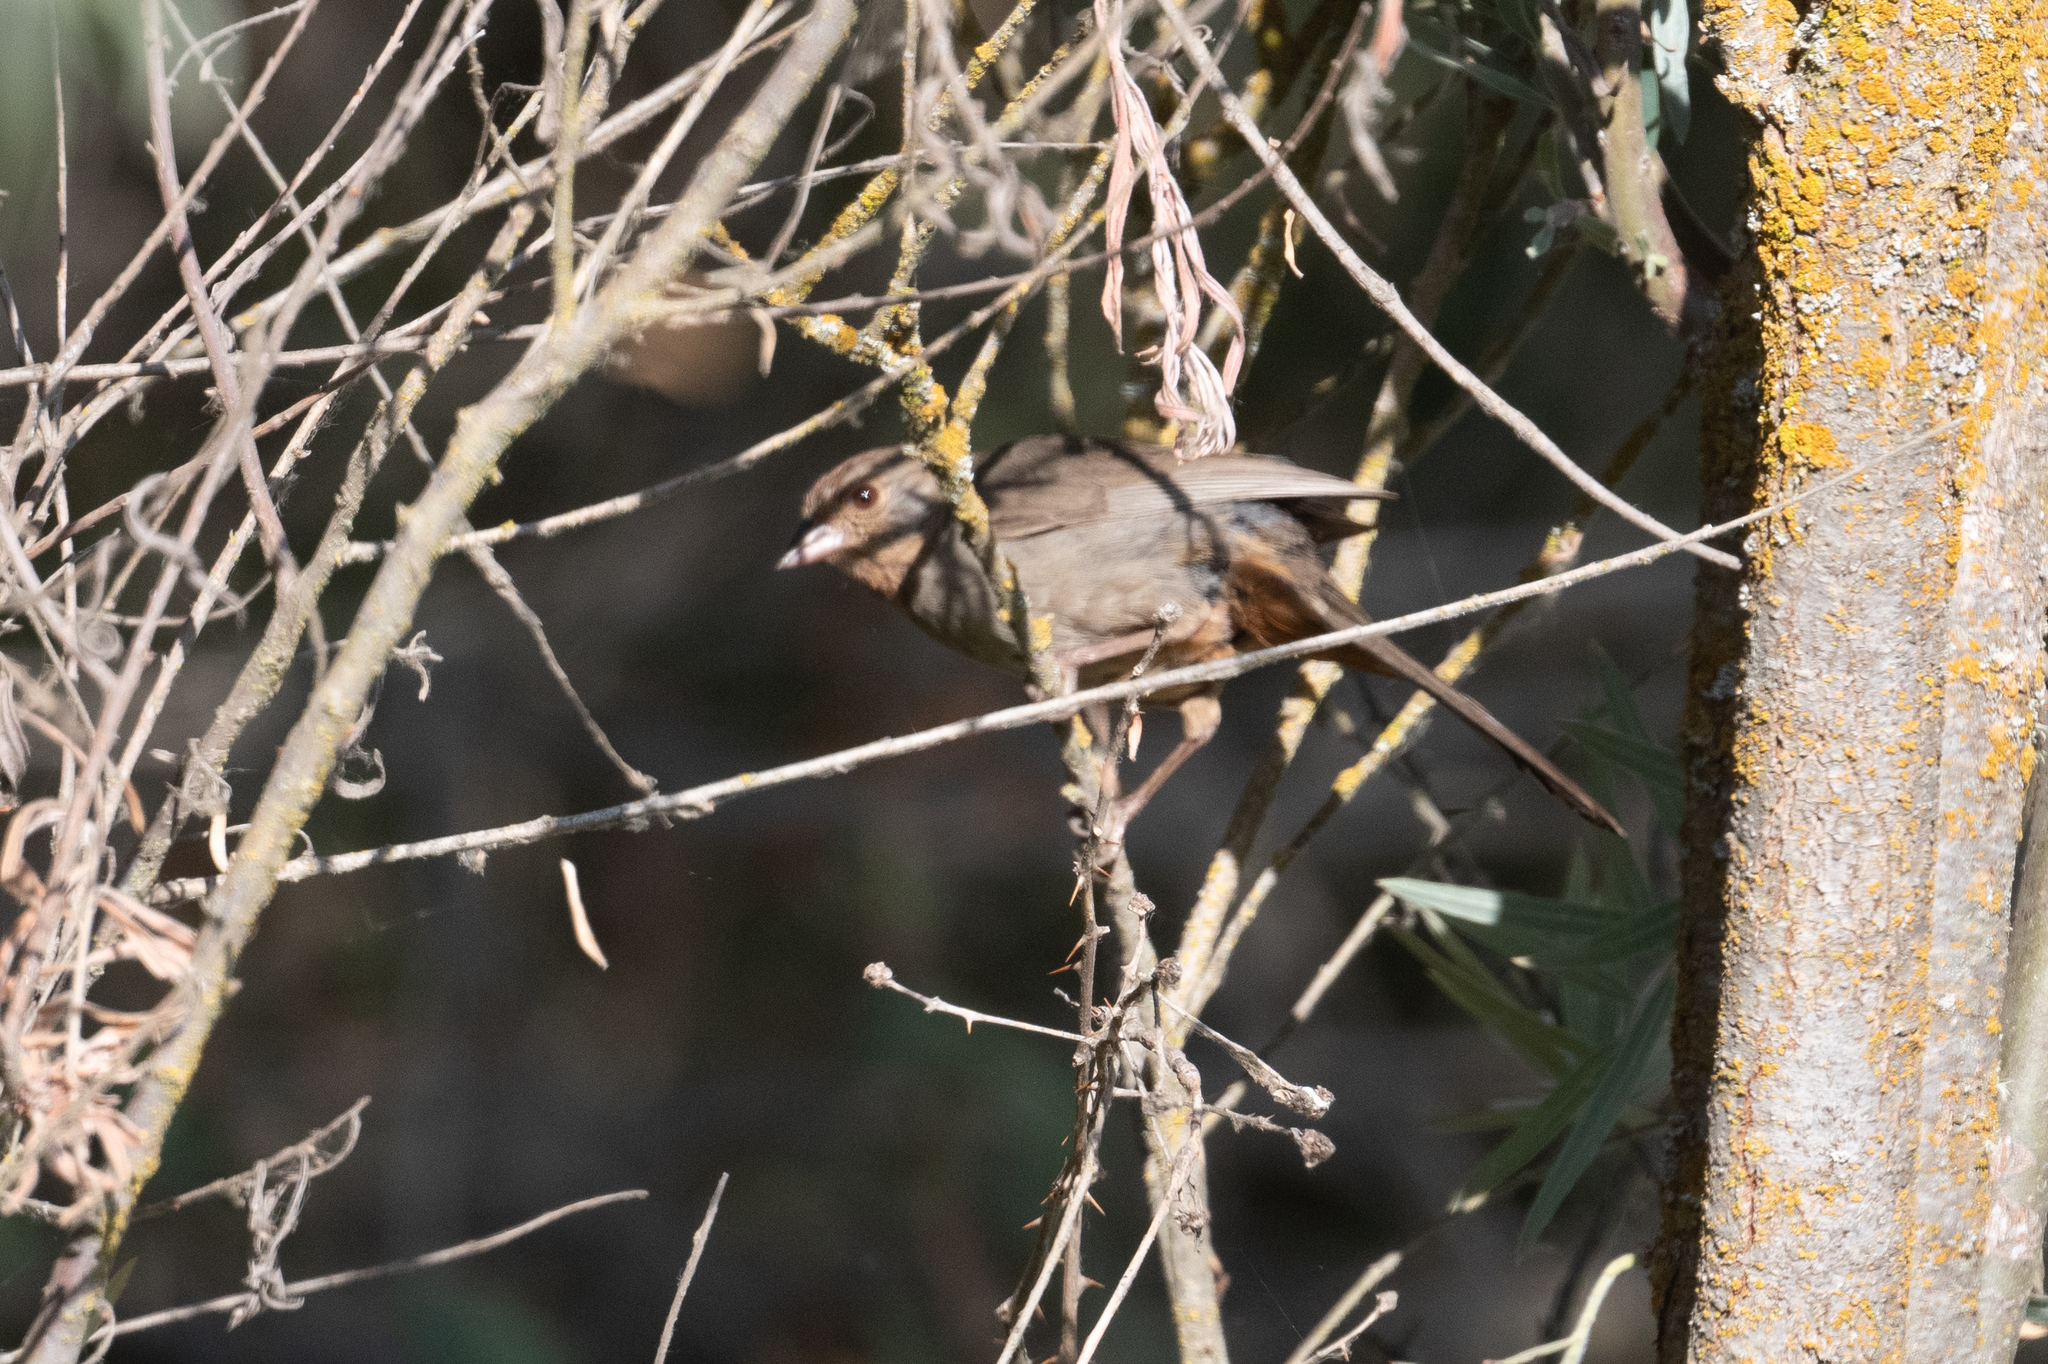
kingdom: Animalia
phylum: Chordata
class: Aves
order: Passeriformes
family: Passerellidae
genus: Melozone
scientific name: Melozone crissalis
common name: California towhee
